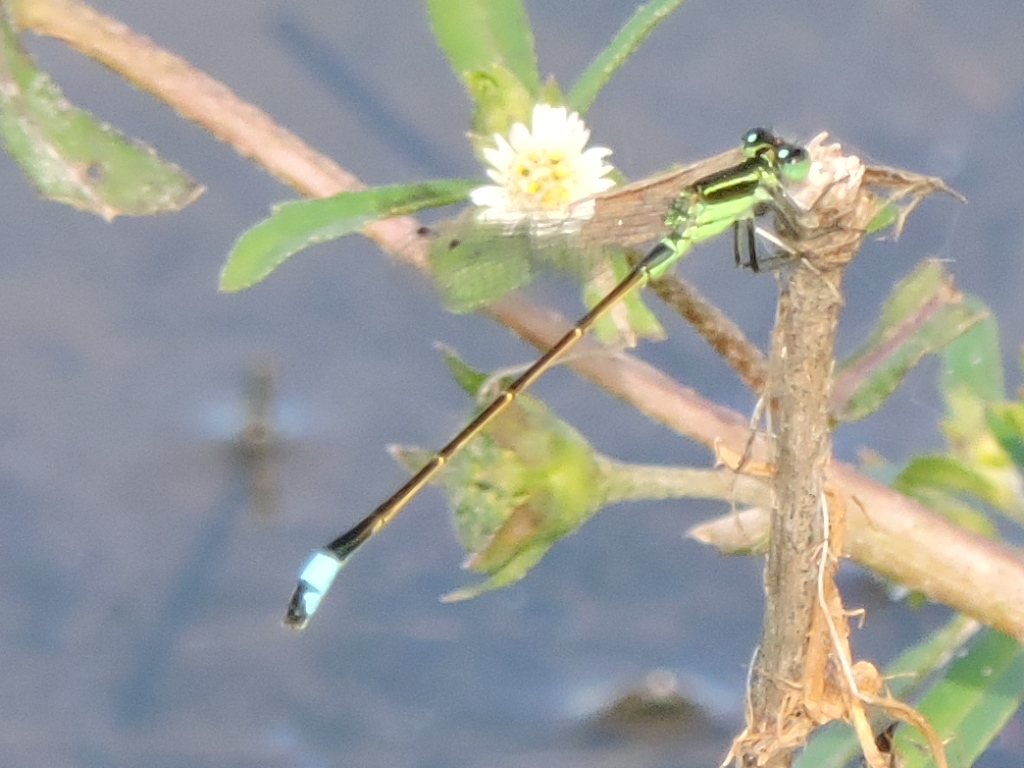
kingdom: Animalia
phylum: Arthropoda
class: Insecta
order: Odonata
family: Coenagrionidae
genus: Ischnura
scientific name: Ischnura ramburii
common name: Rambur's forktail
